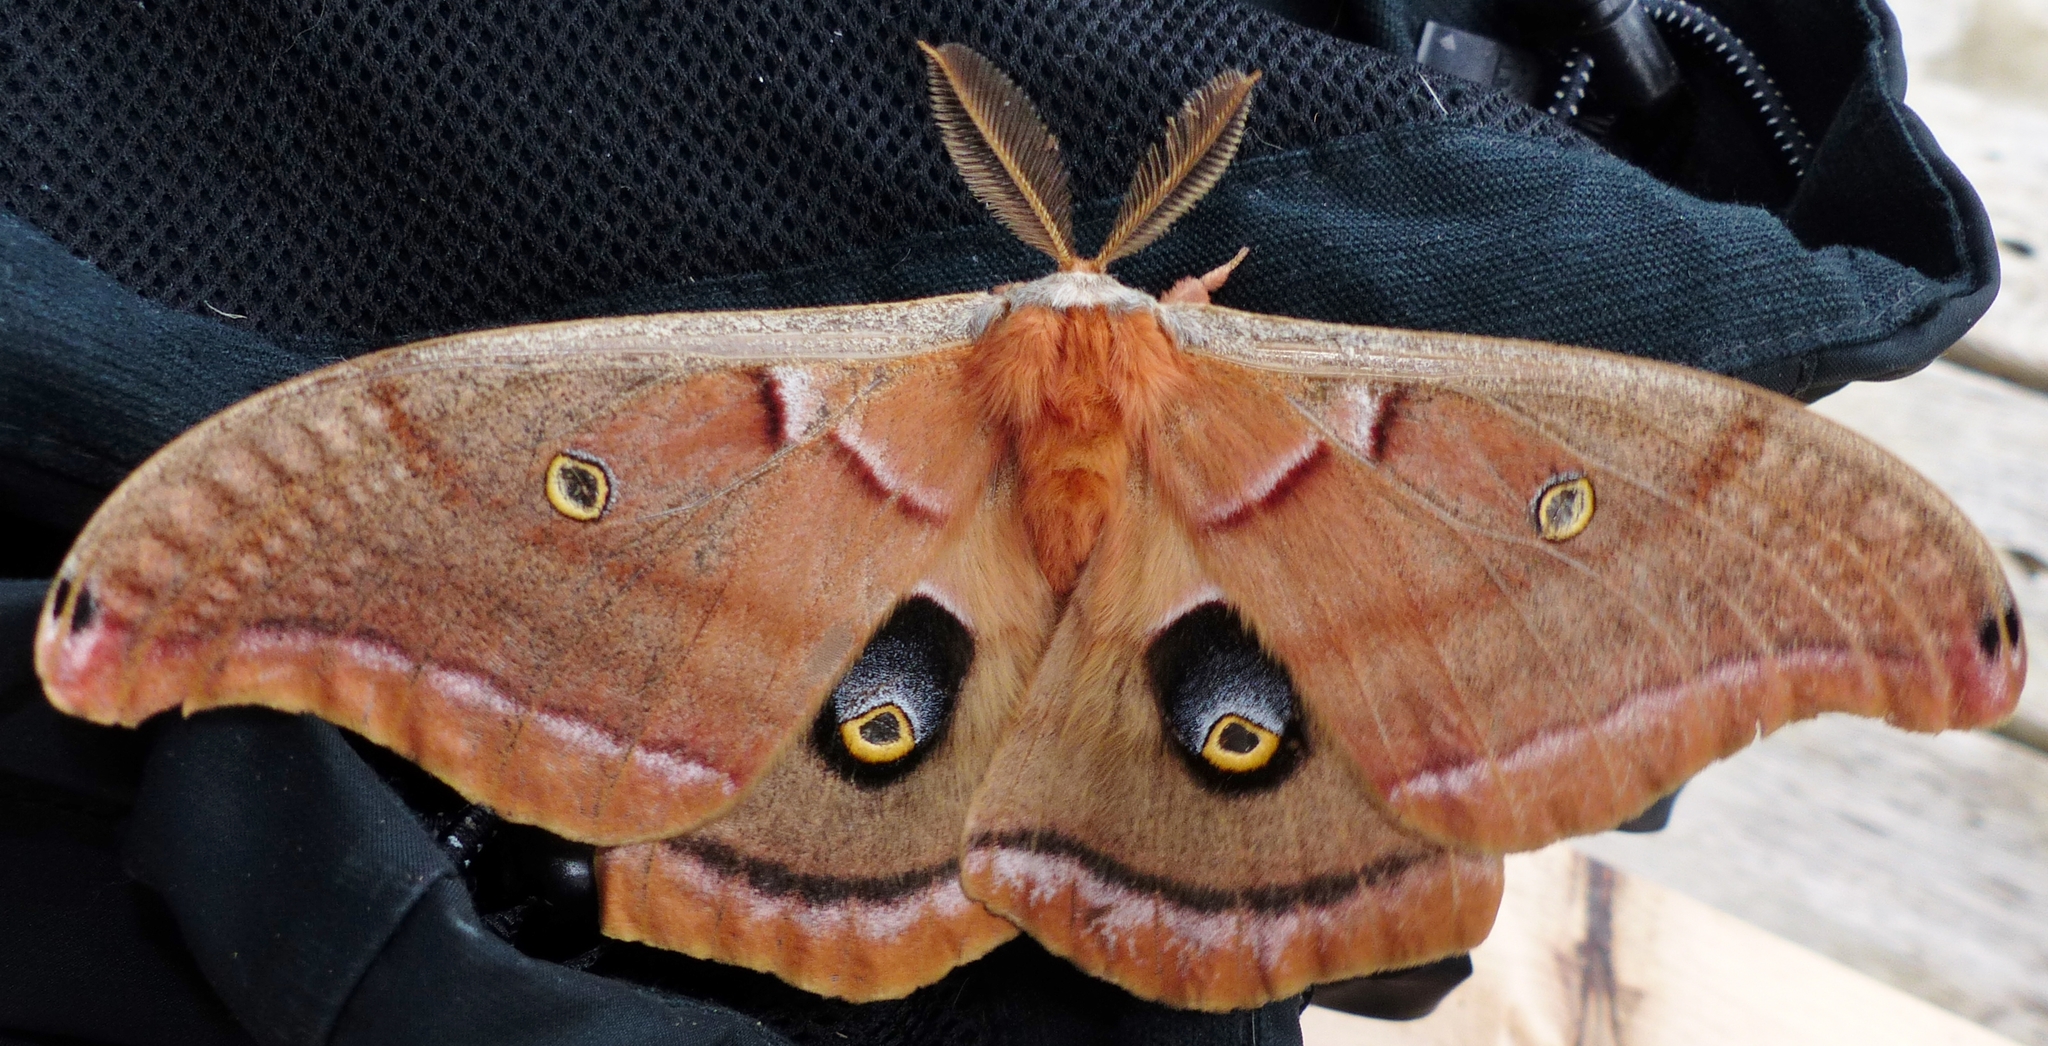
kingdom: Animalia
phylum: Arthropoda
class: Insecta
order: Lepidoptera
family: Saturniidae
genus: Antheraea
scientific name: Antheraea polyphemus
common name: Polyphemus moth
